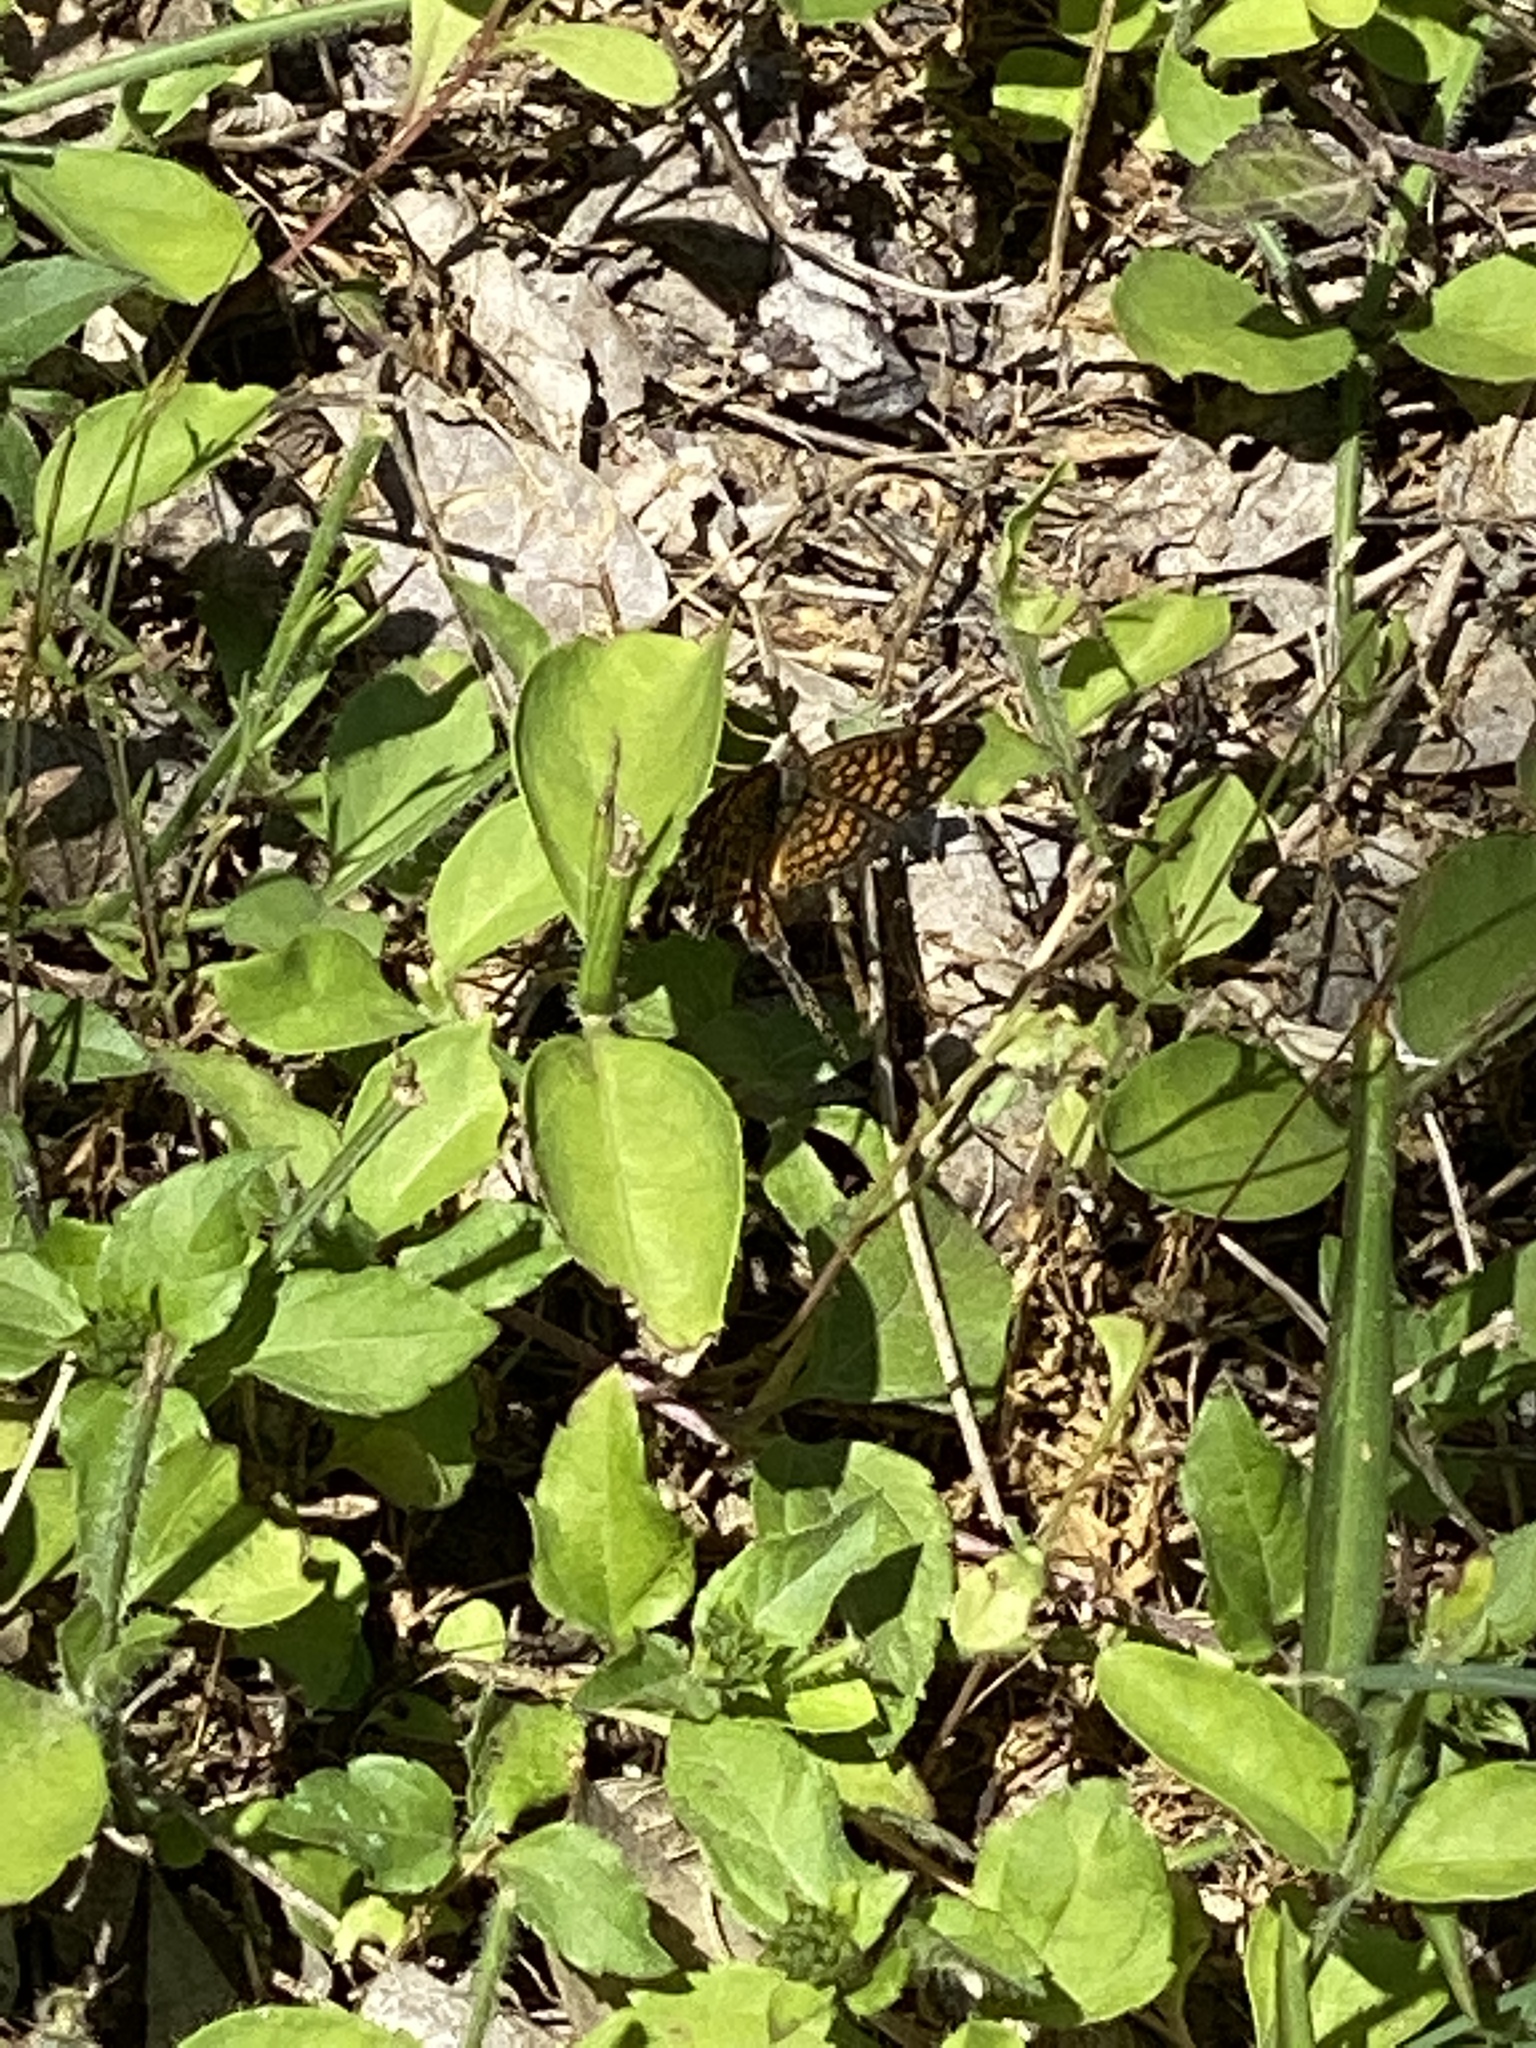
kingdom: Animalia
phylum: Arthropoda
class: Insecta
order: Lepidoptera
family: Nymphalidae
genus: Phyciodes
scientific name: Phyciodes vesta
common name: Vesta crescent
